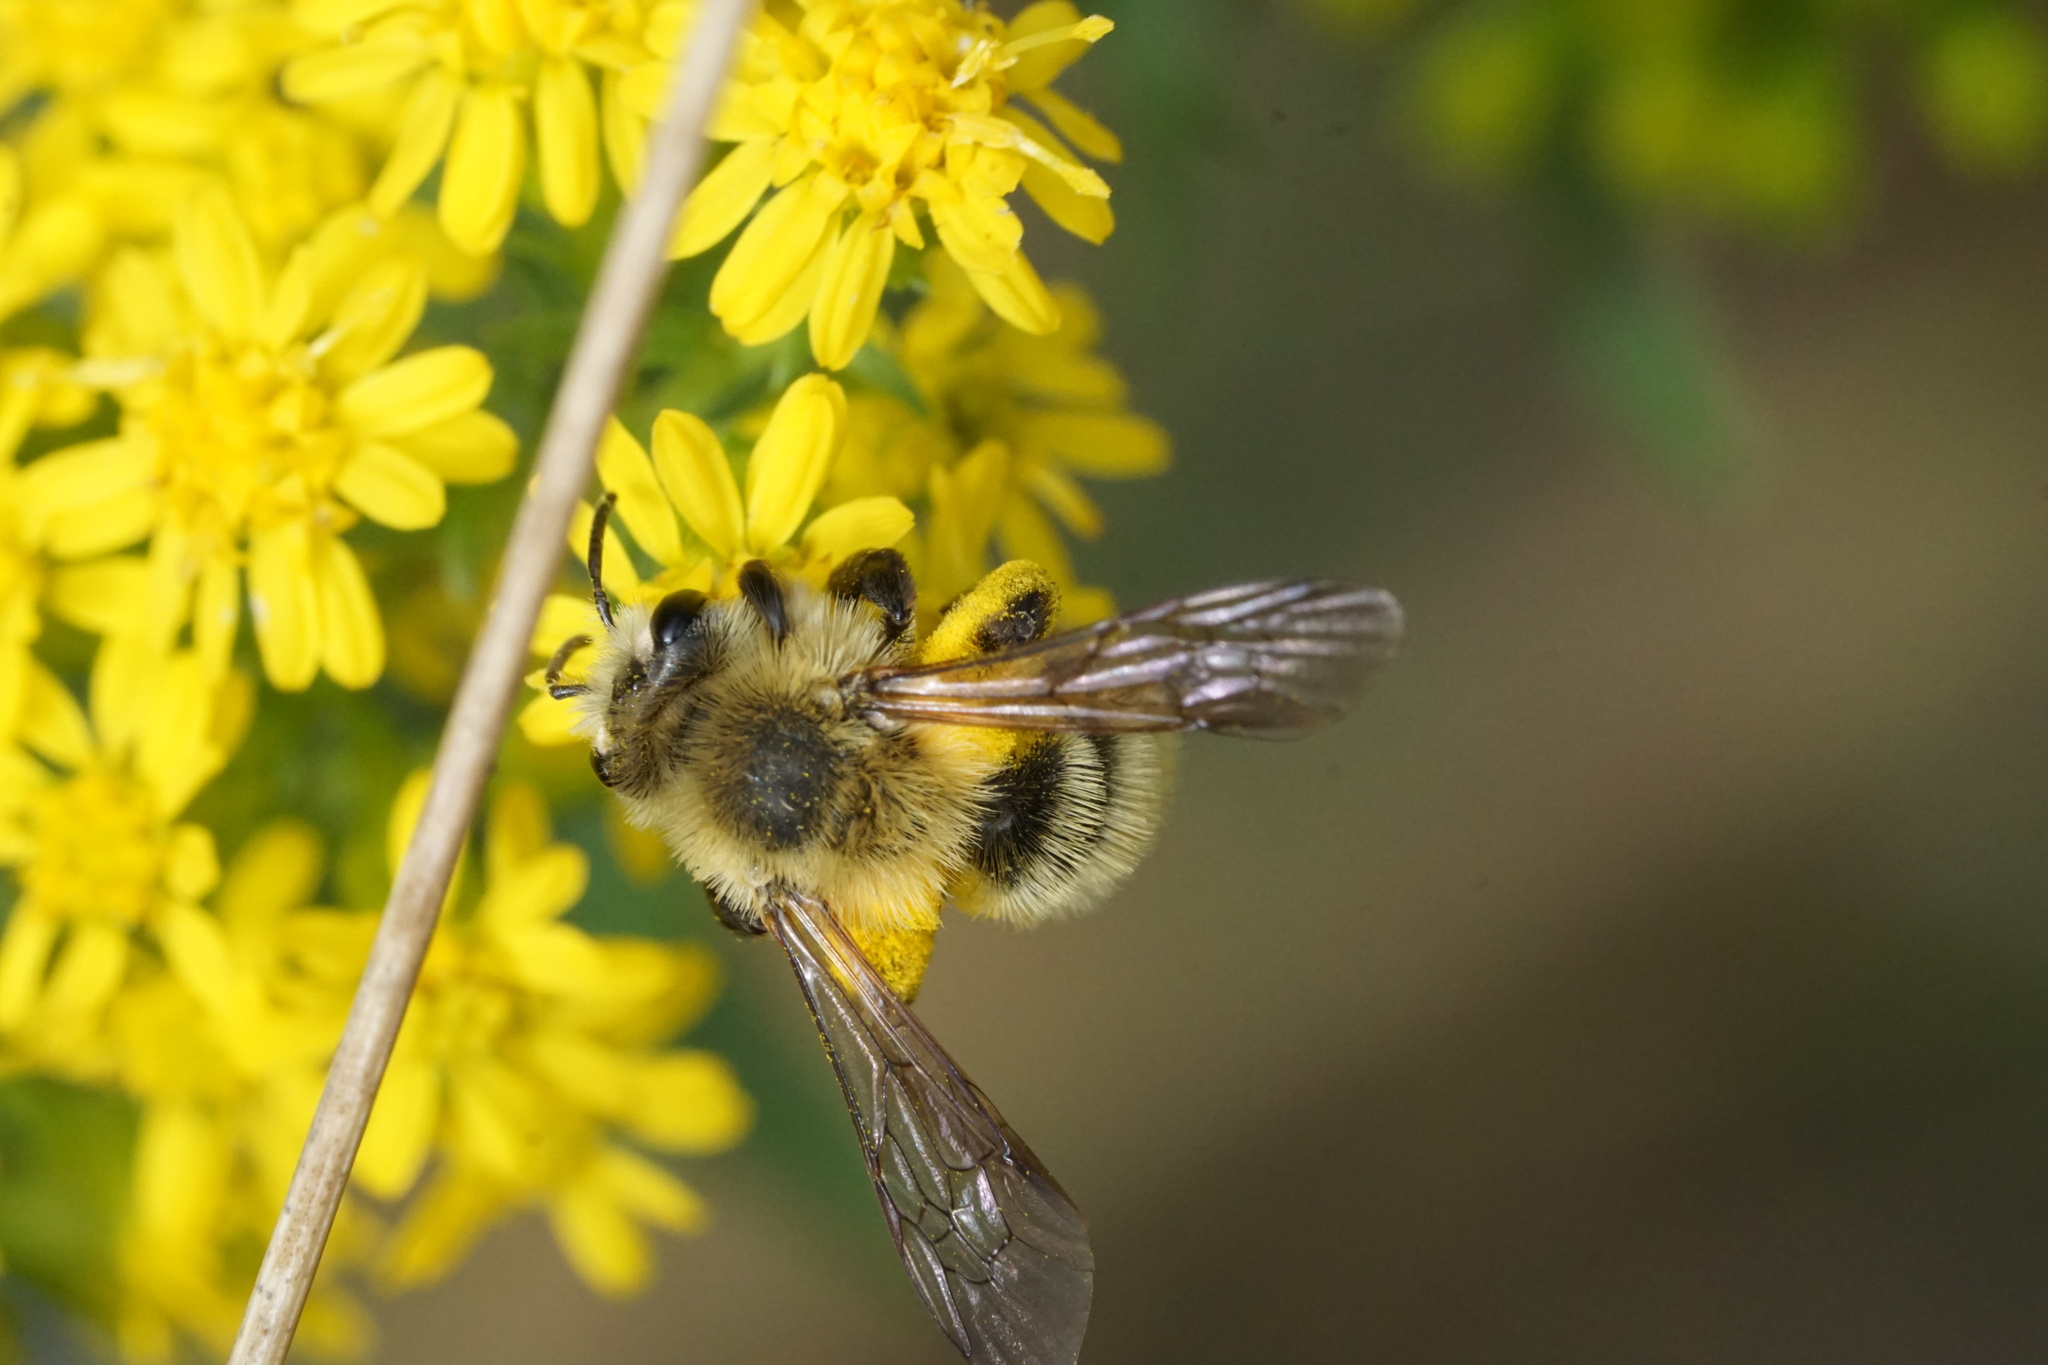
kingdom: Animalia
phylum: Arthropoda
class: Insecta
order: Hymenoptera
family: Andrenidae
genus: Andrena
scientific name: Andrena hirticincta
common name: Hairy-banded mining bee
